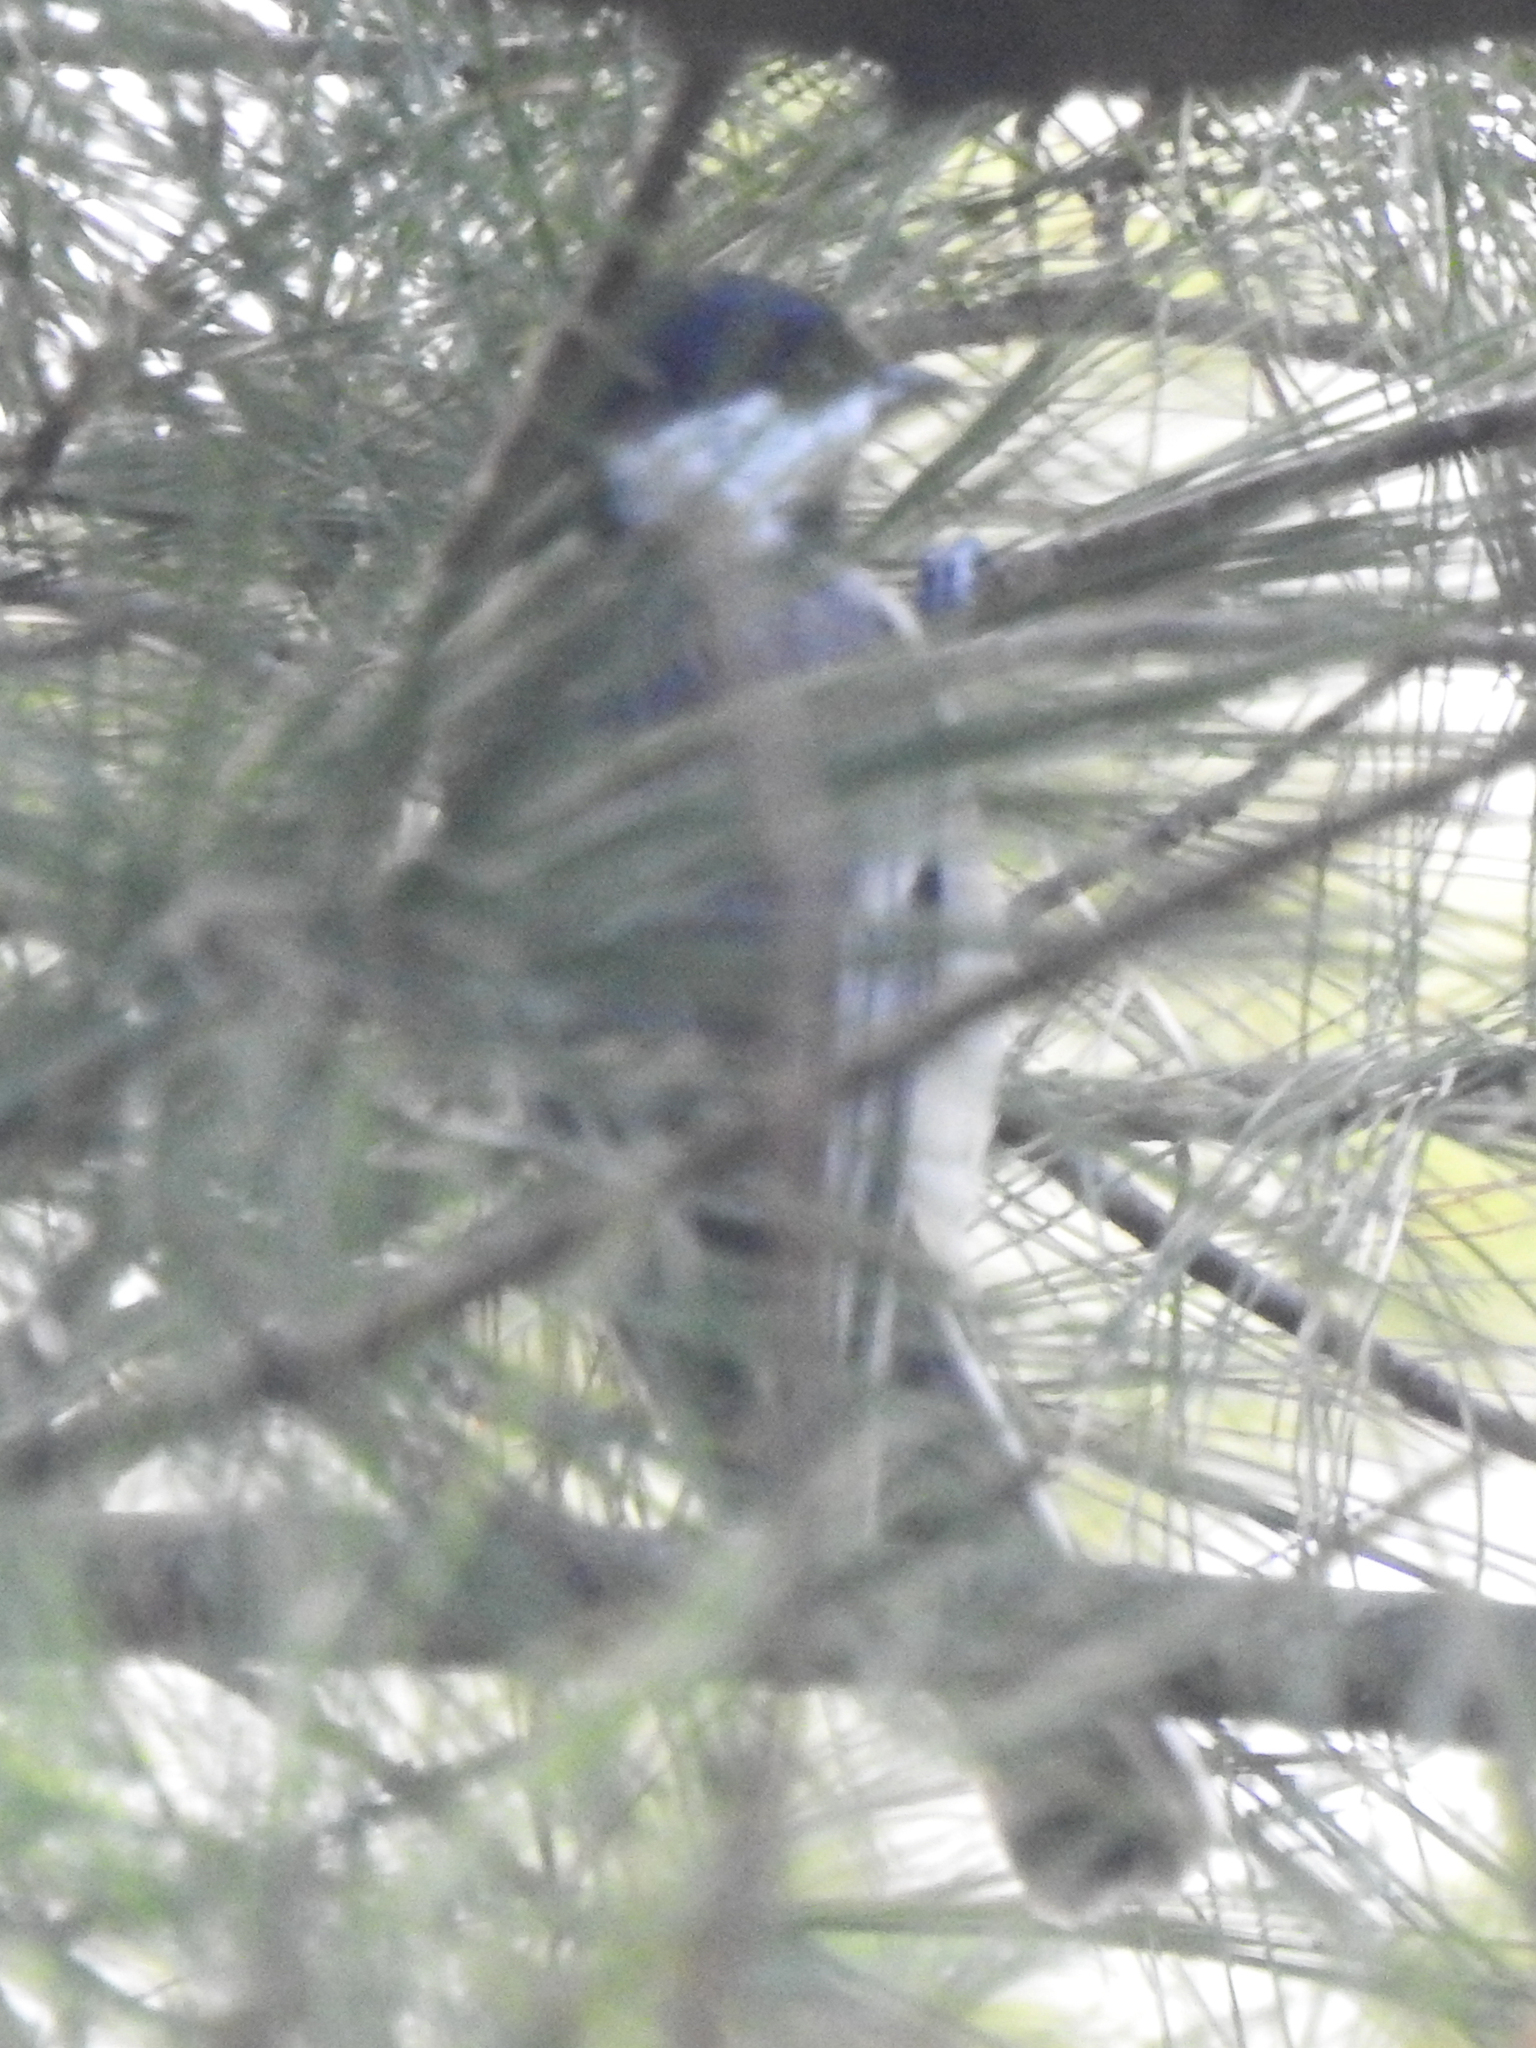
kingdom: Animalia
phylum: Chordata
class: Aves
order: Passeriformes
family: Paridae
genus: Poecile
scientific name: Poecile atricapillus
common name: Black-capped chickadee
